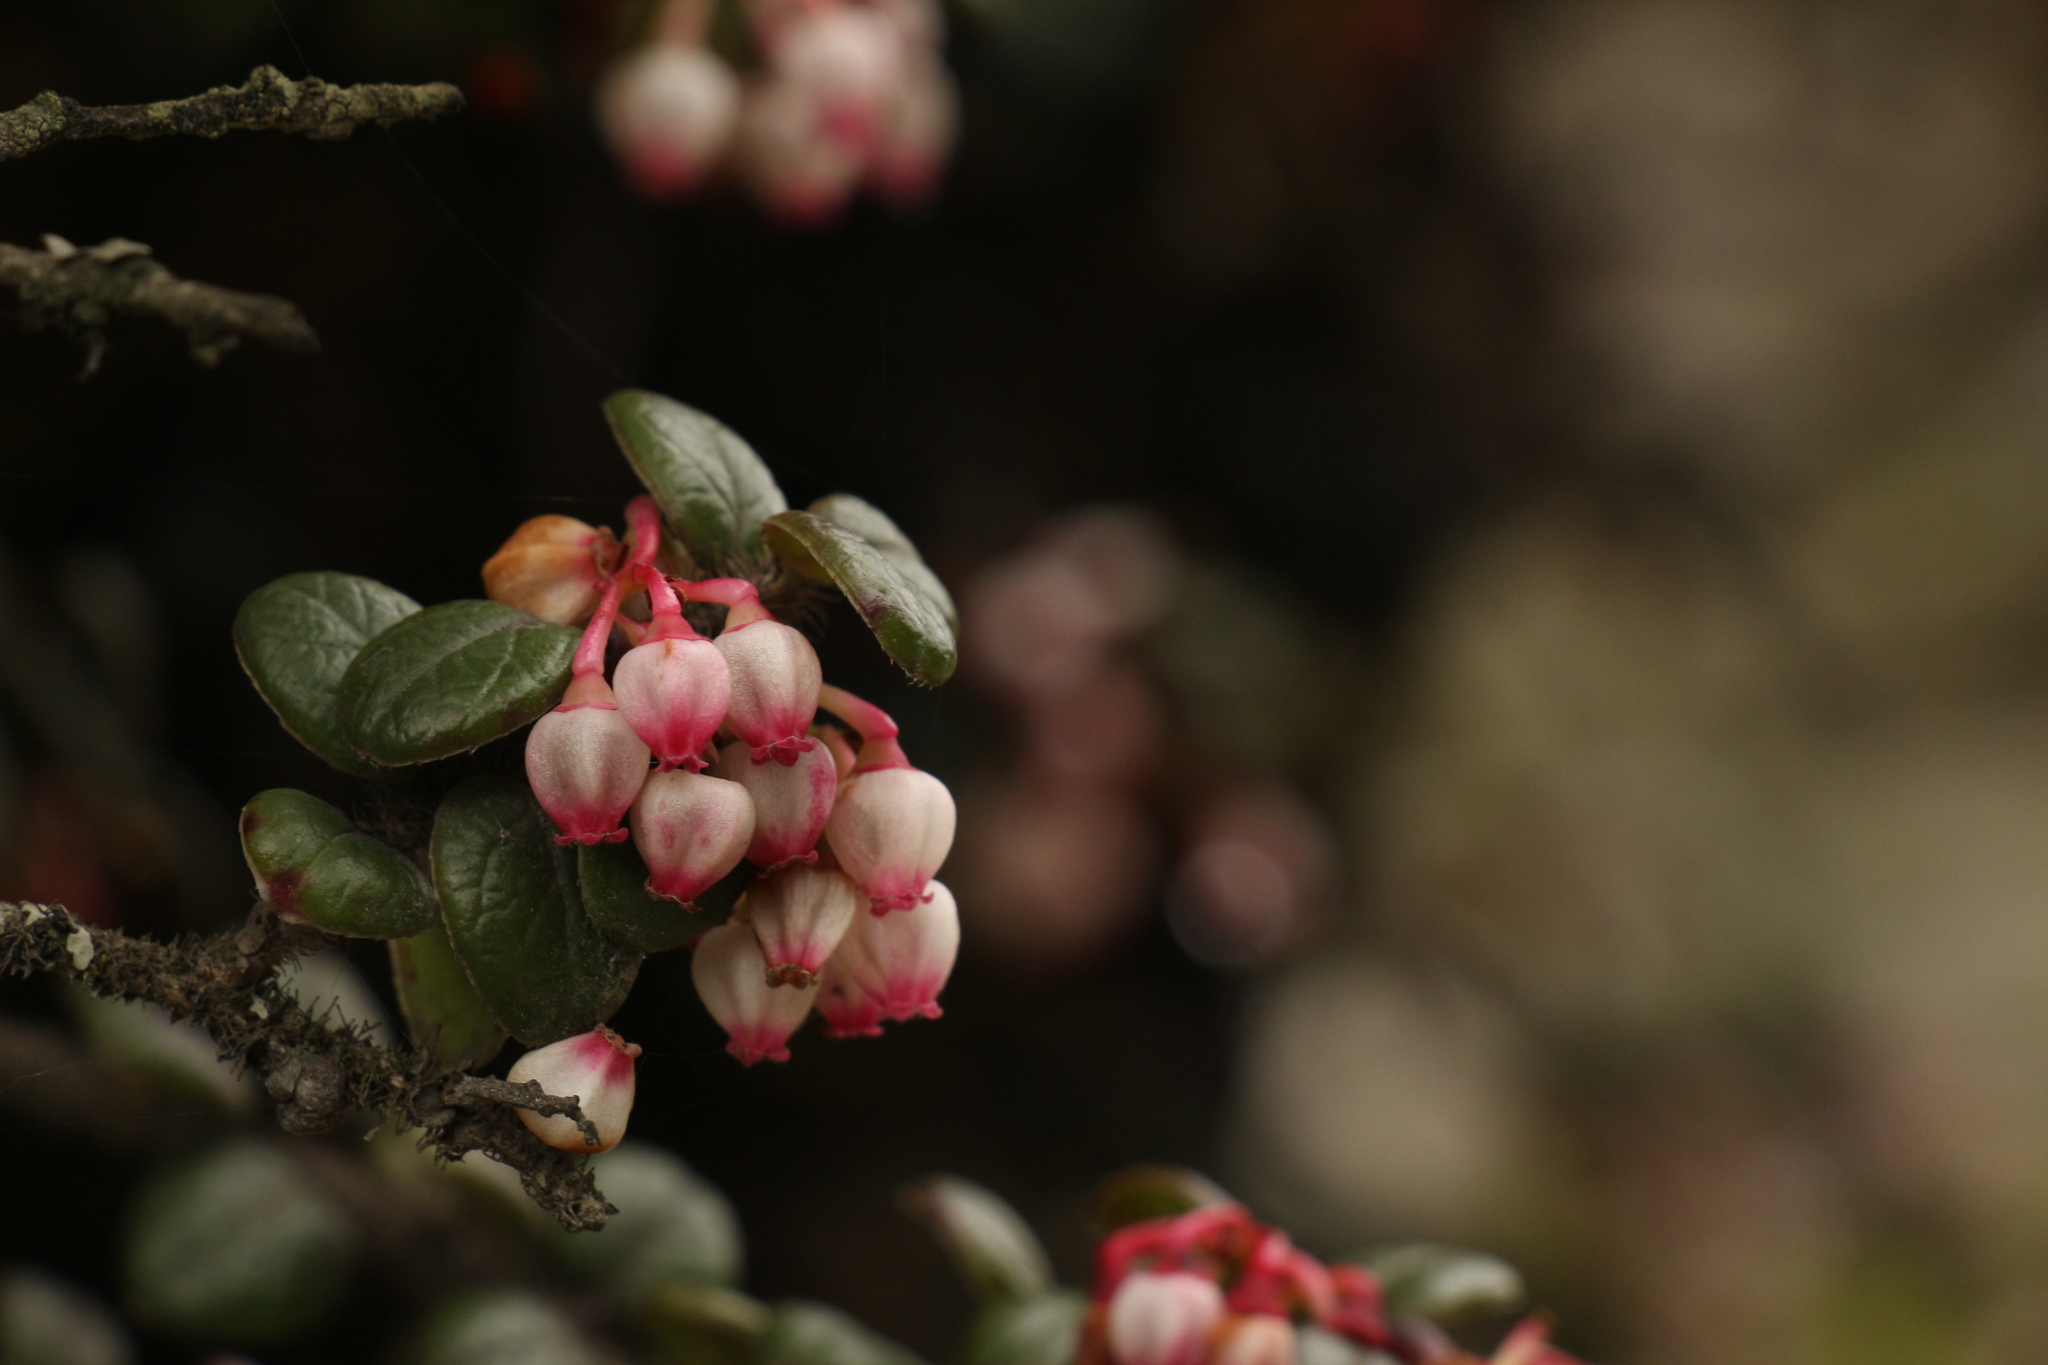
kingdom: Plantae
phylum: Tracheophyta
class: Magnoliopsida
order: Ericales
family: Ericaceae
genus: Vaccinium
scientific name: Vaccinium nummularia
